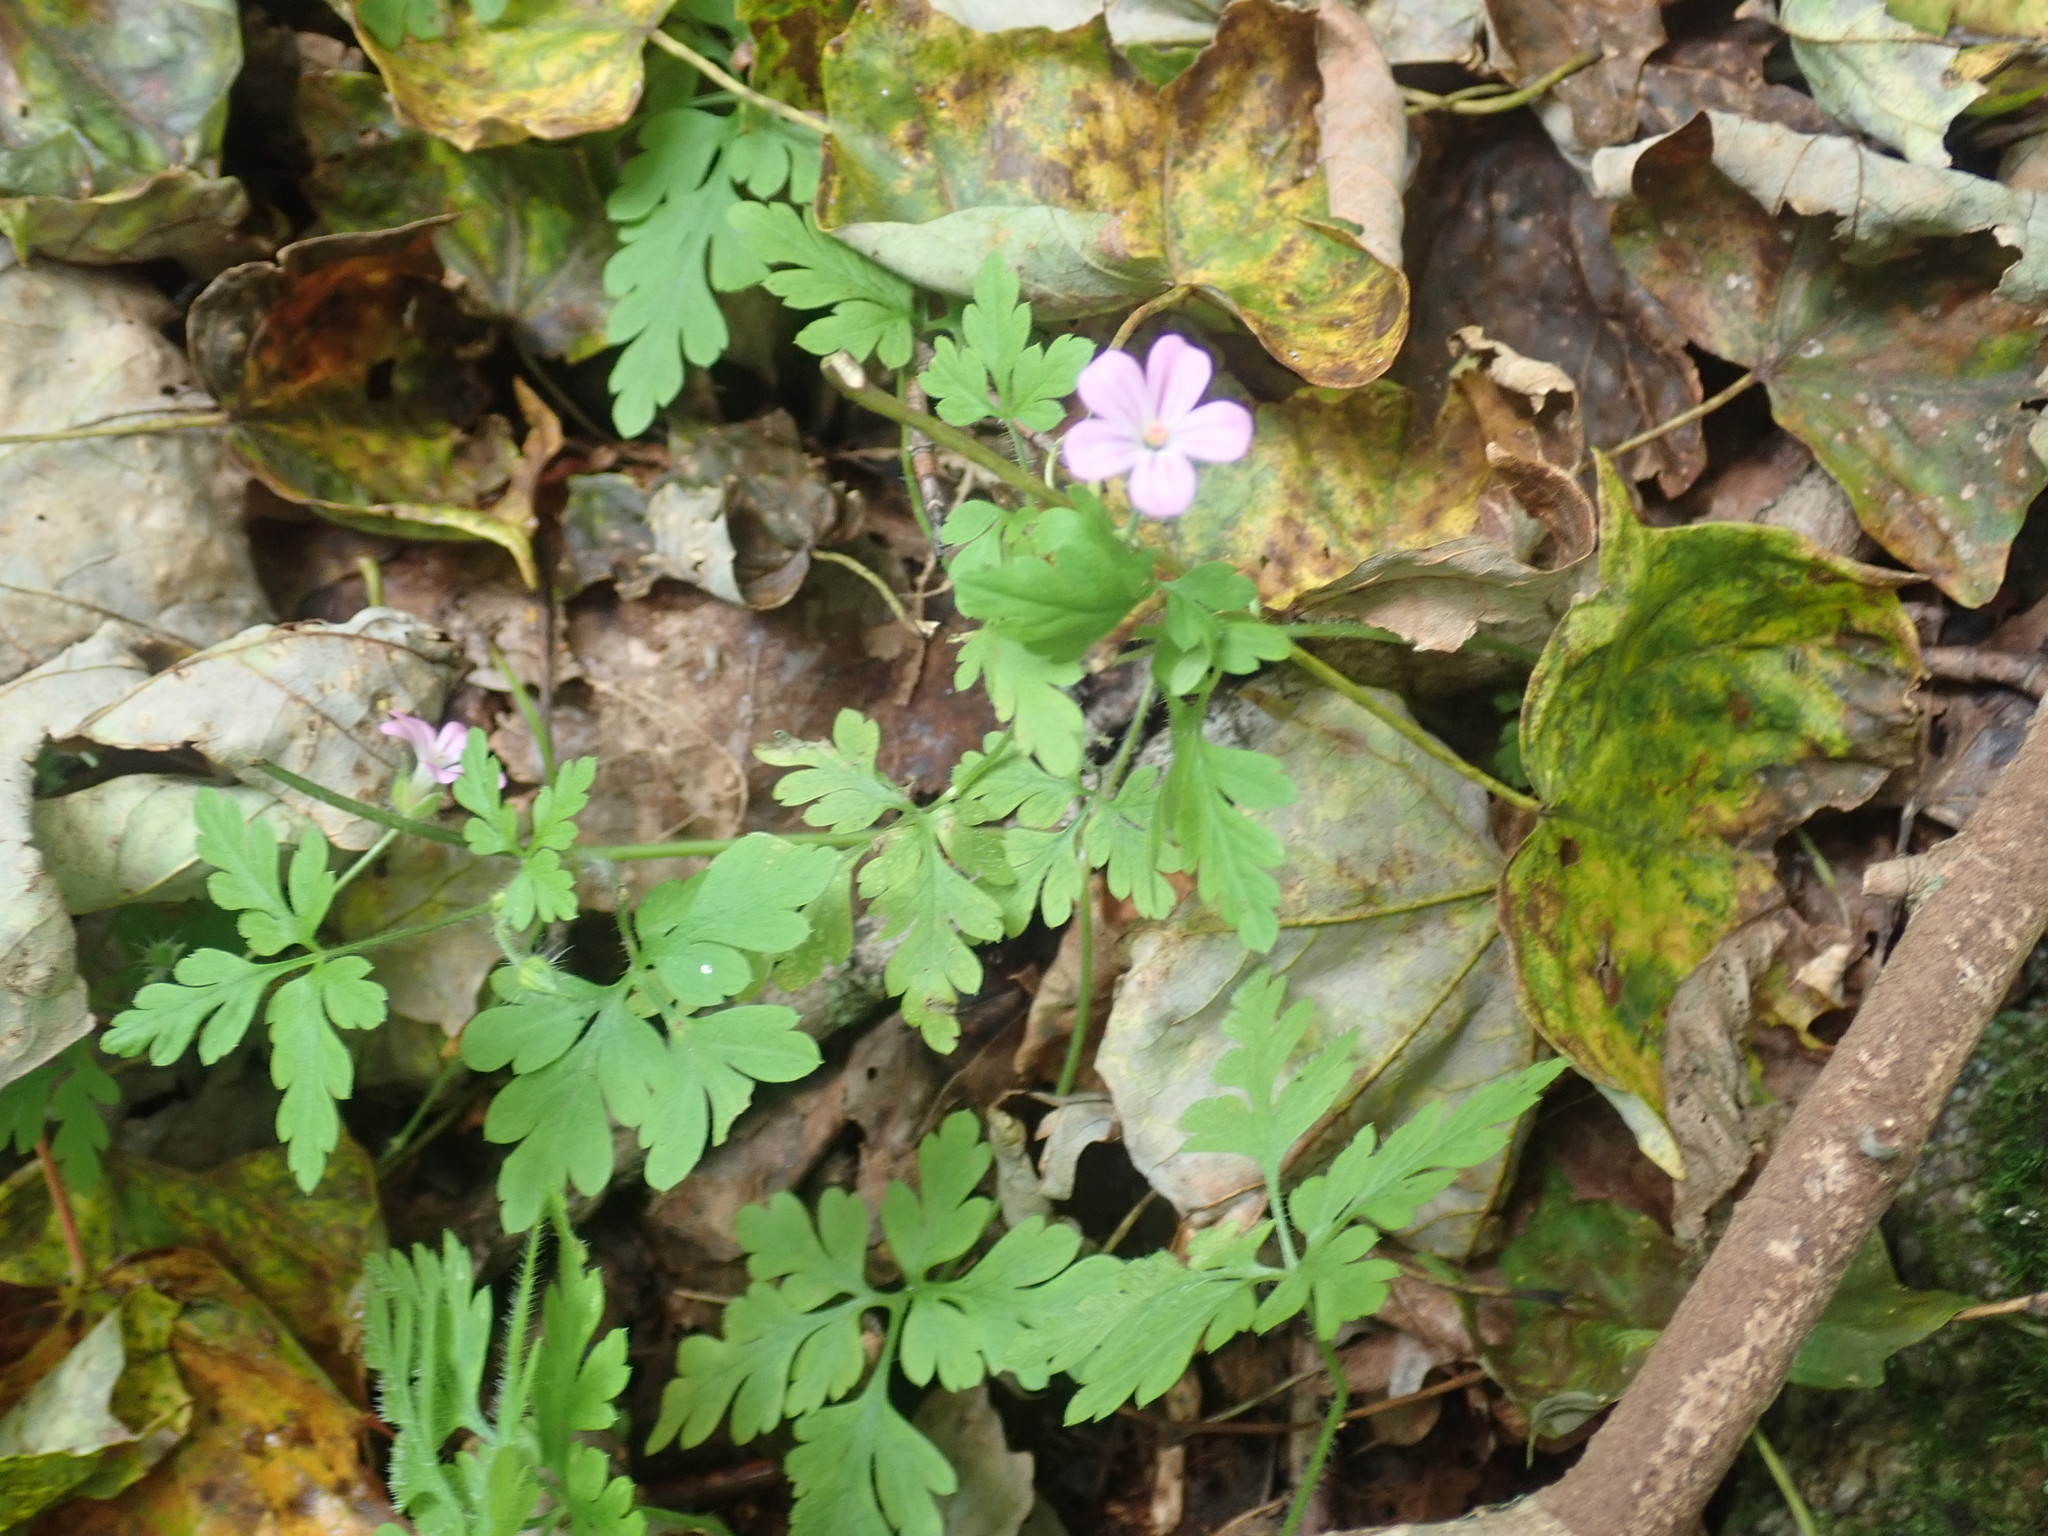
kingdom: Plantae
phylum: Tracheophyta
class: Magnoliopsida
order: Geraniales
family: Geraniaceae
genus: Geranium
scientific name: Geranium robertianum
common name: Herb-robert
